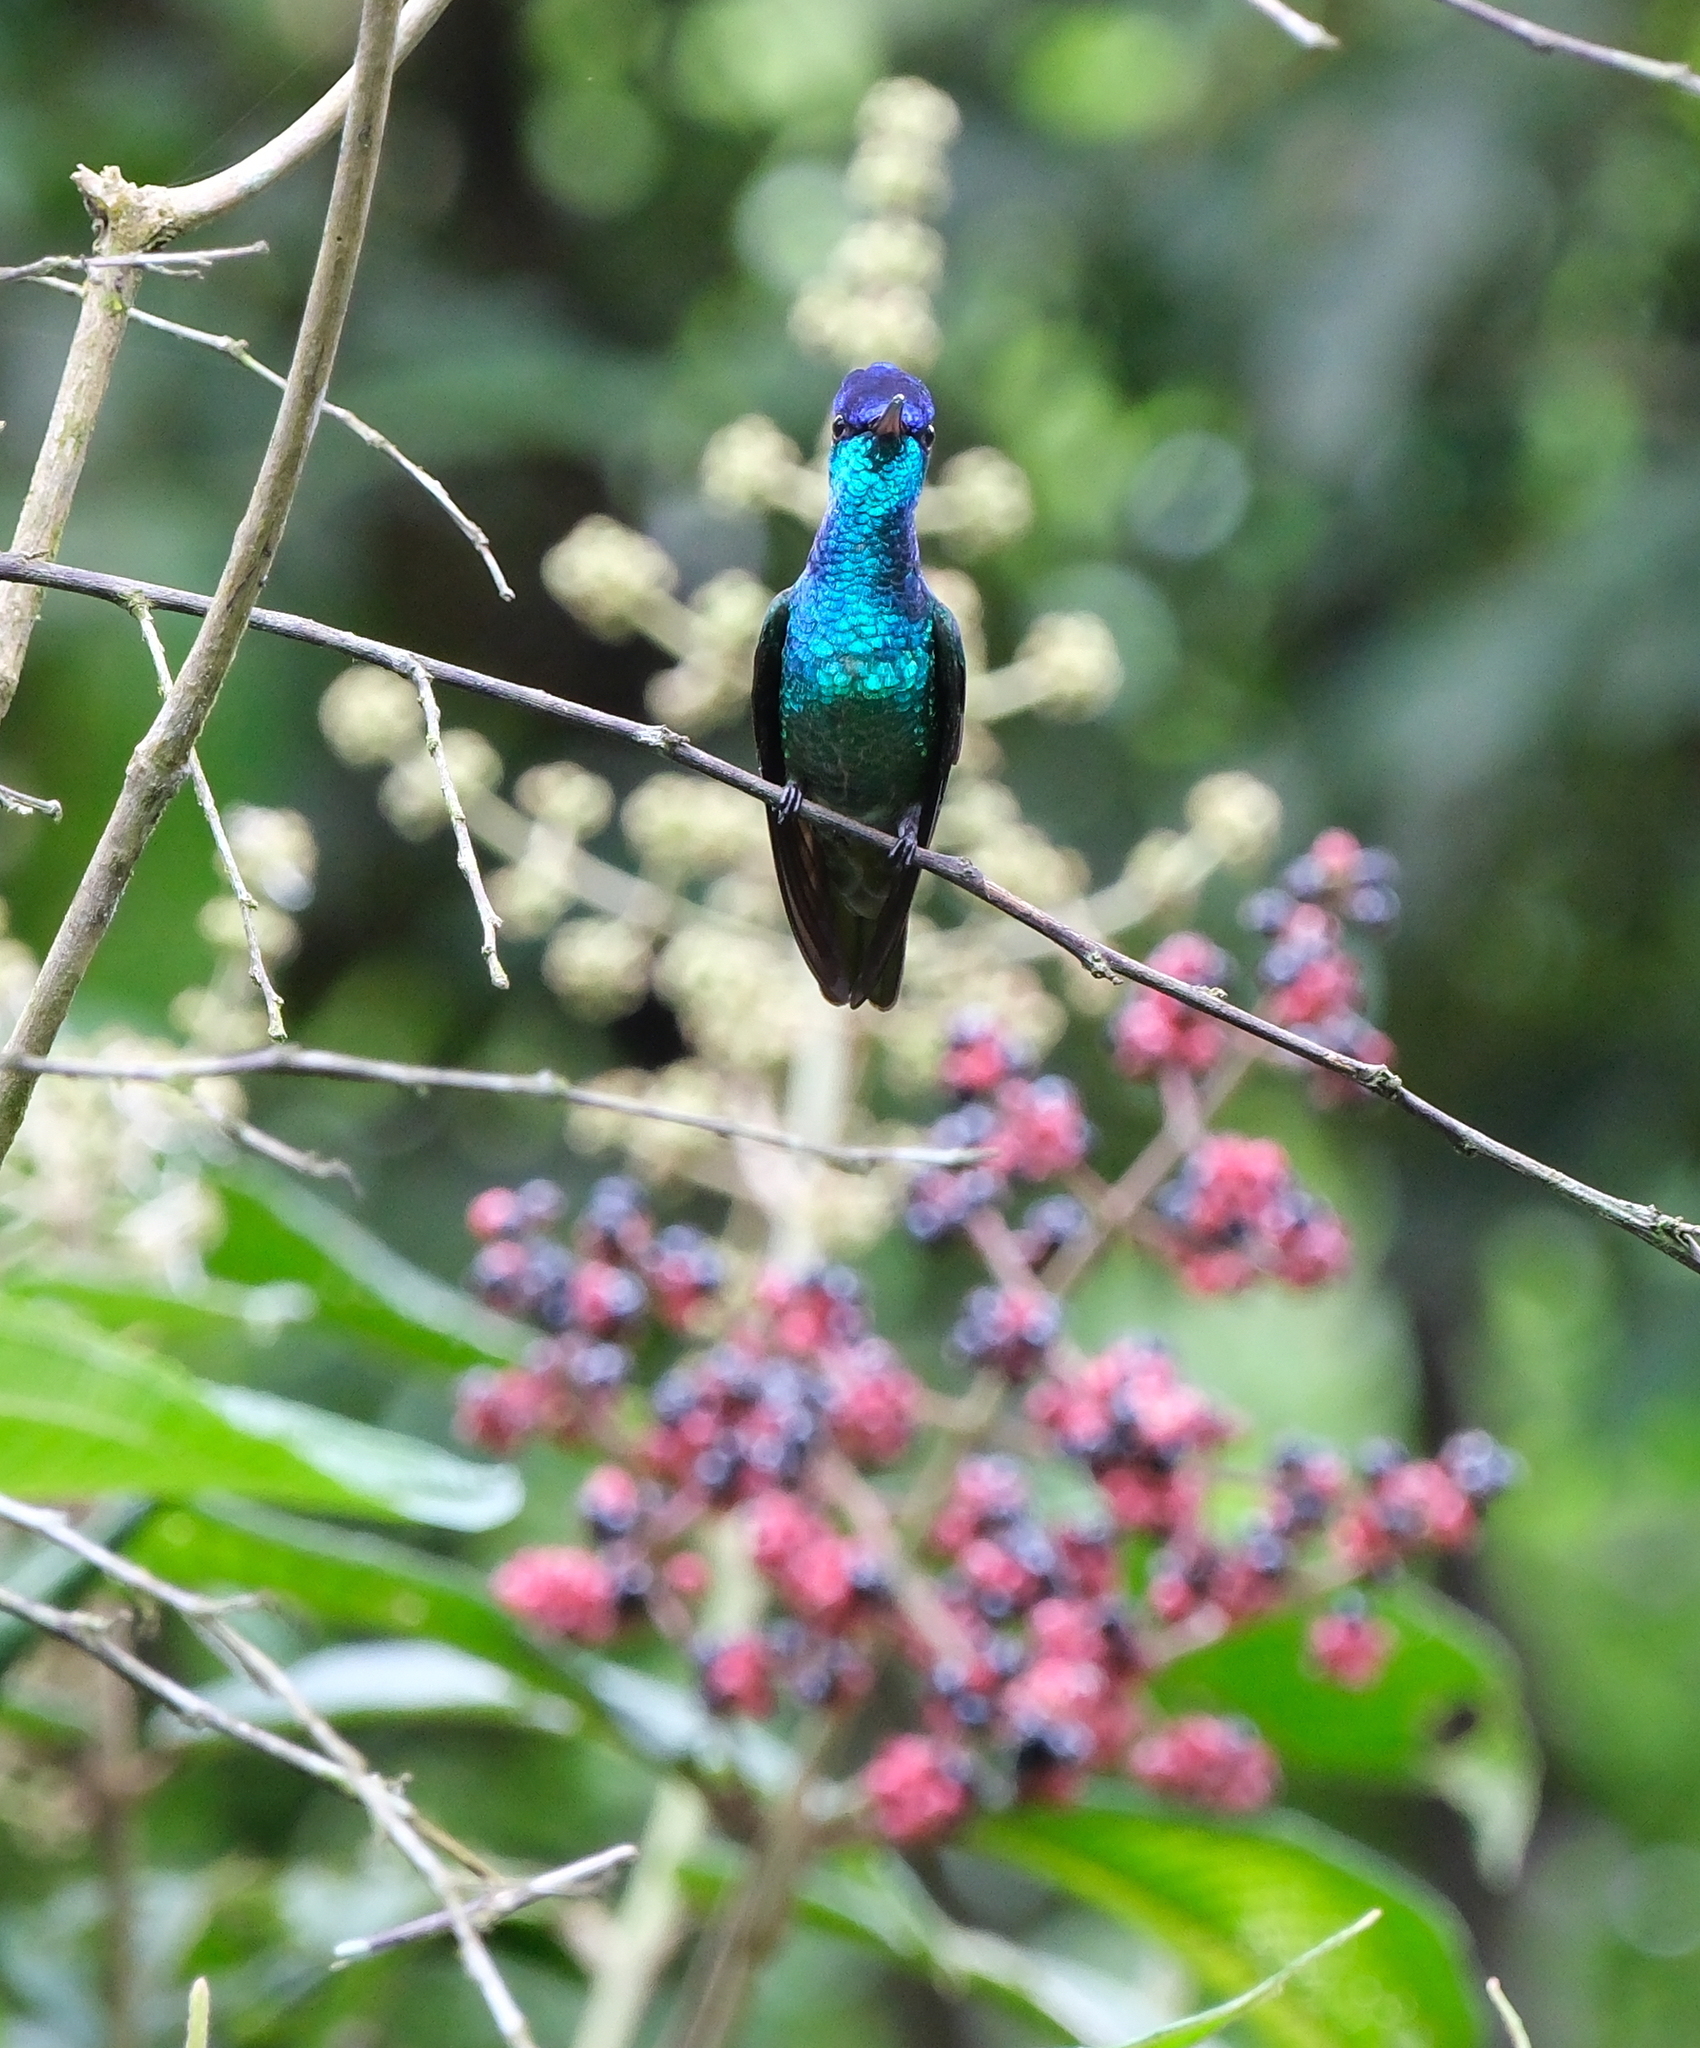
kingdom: Animalia
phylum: Chordata
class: Aves
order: Apodiformes
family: Trochilidae
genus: Chrysuronia
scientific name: Chrysuronia oenone
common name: Golden-tailed sapphire
